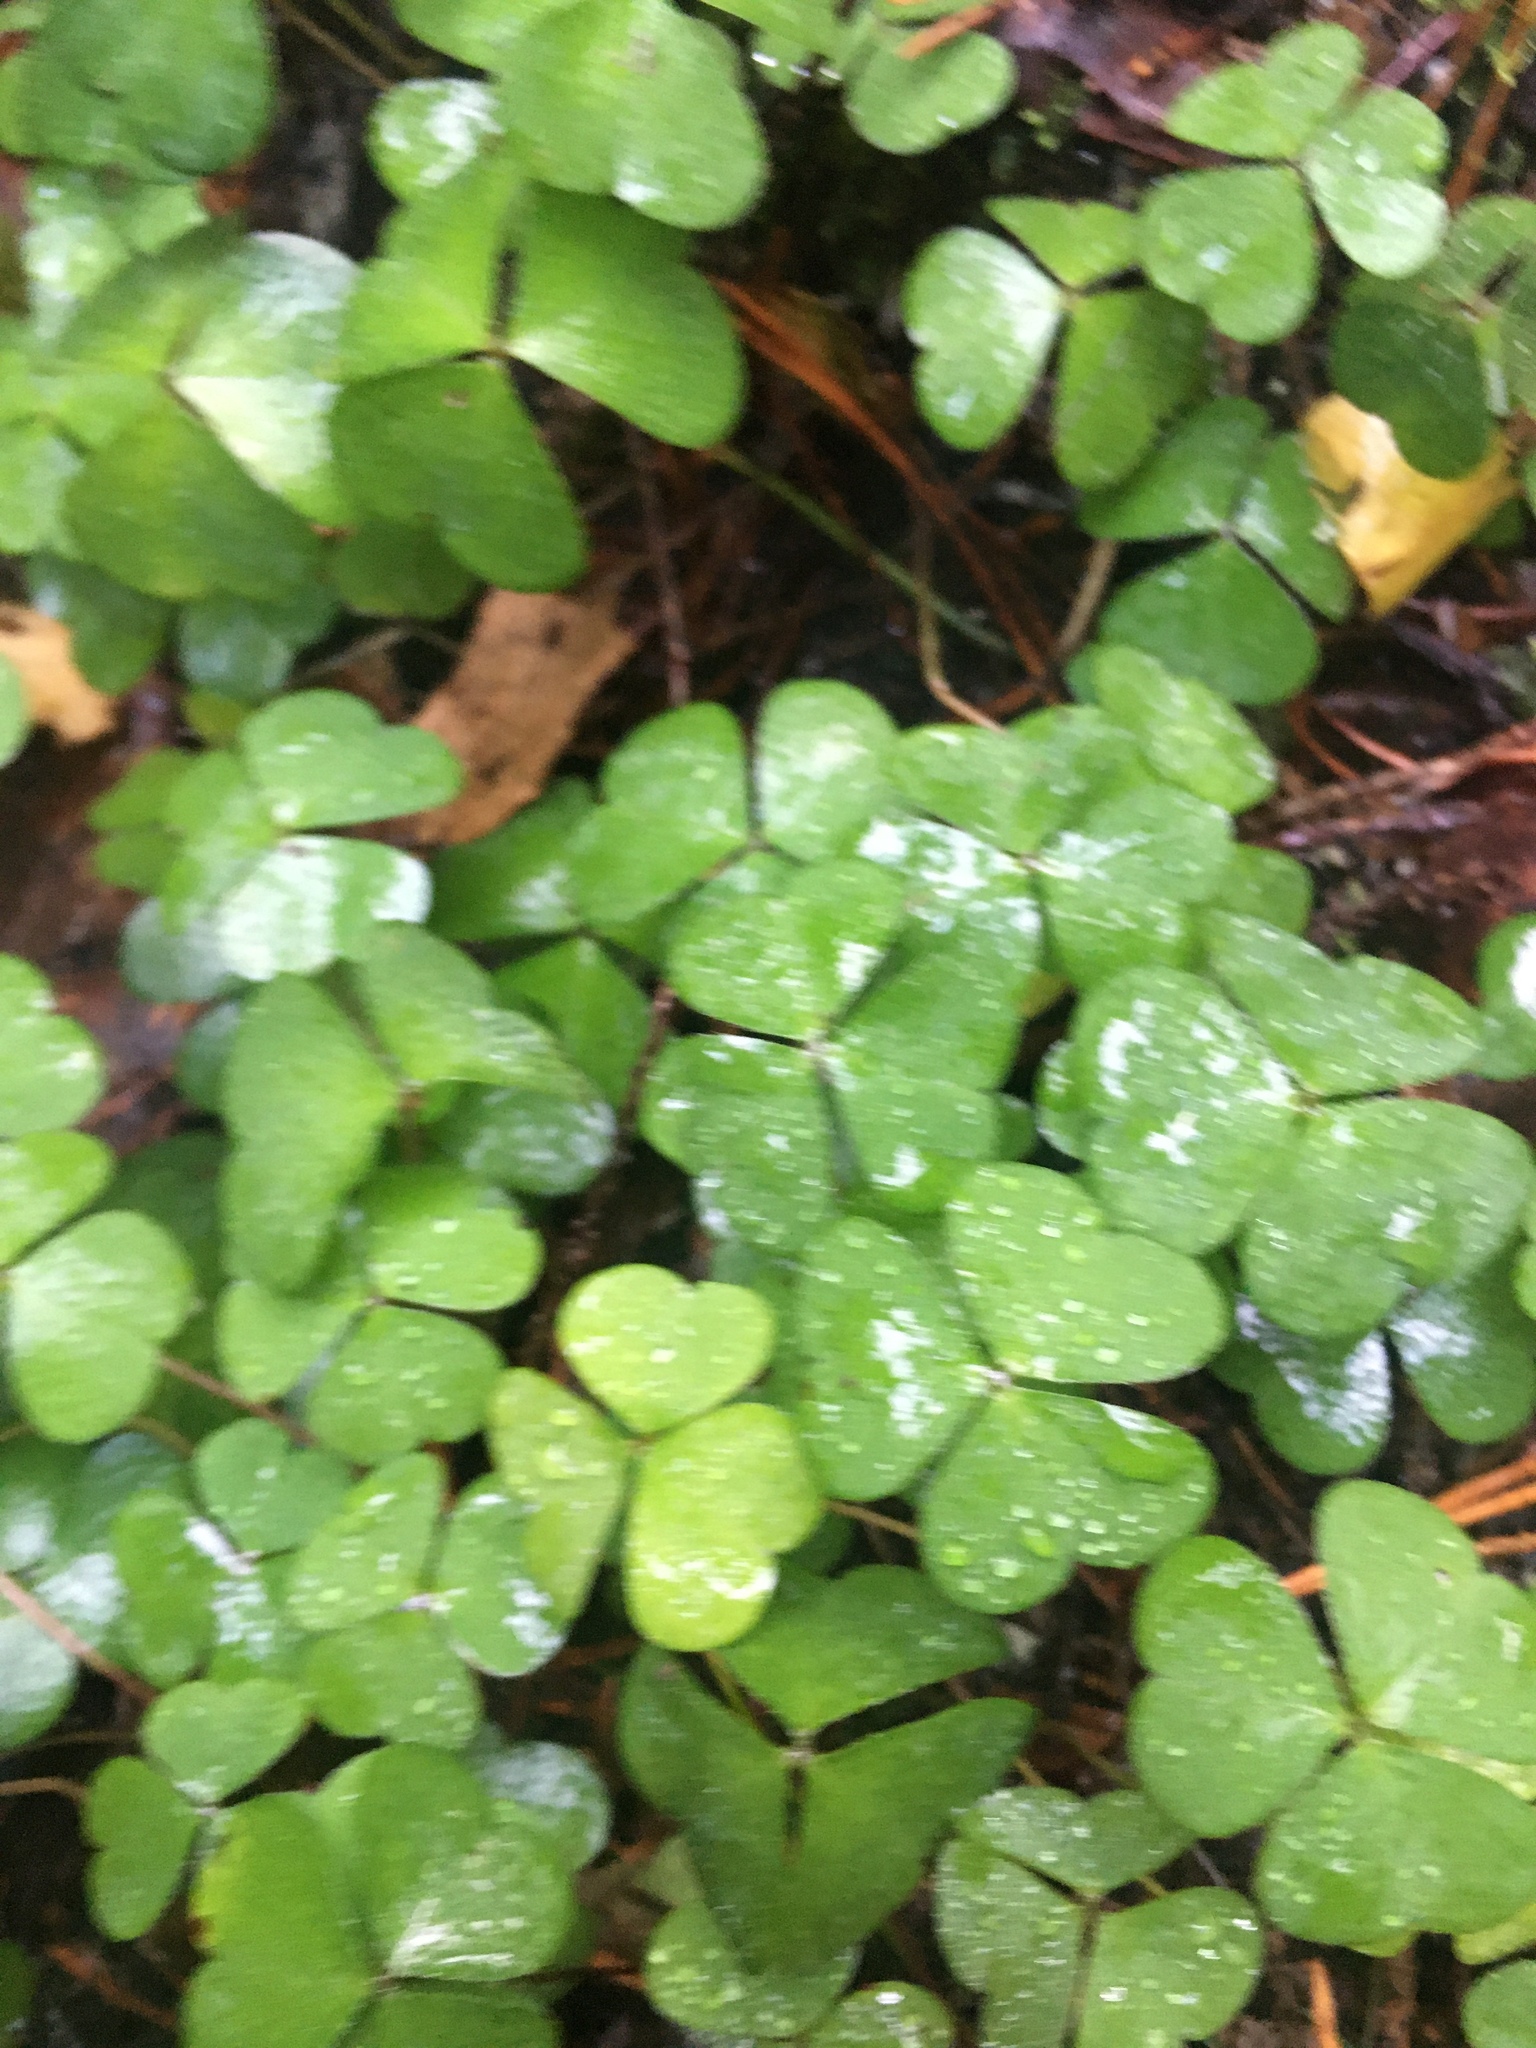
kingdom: Plantae
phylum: Tracheophyta
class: Magnoliopsida
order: Oxalidales
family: Oxalidaceae
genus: Oxalis
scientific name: Oxalis acetosella
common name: Wood-sorrel
